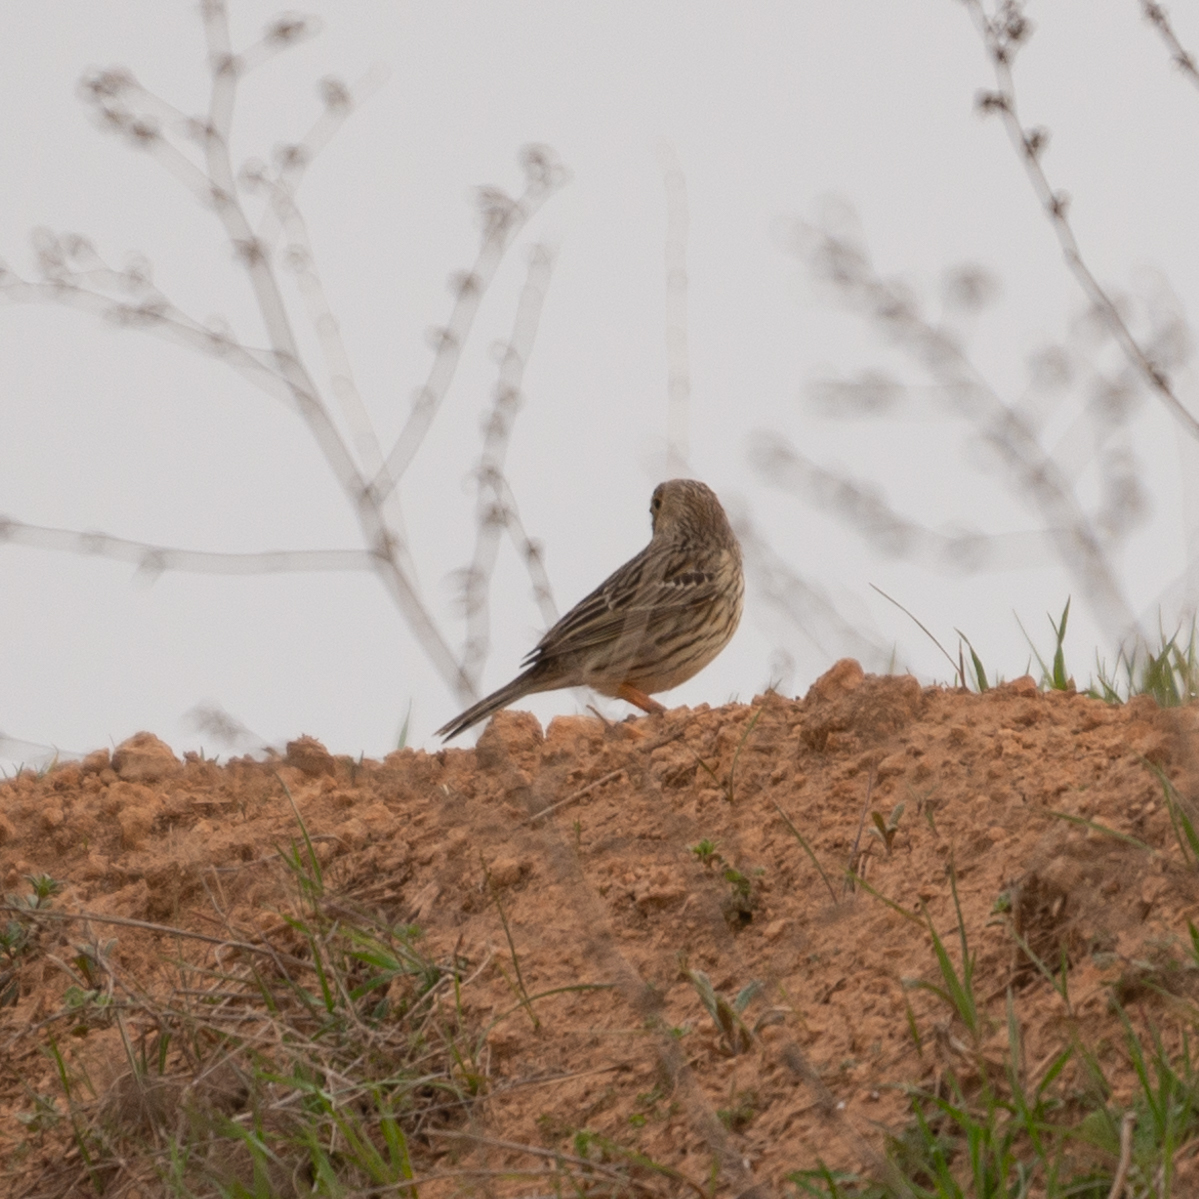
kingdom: Animalia
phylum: Chordata
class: Aves
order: Passeriformes
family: Emberizidae
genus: Emberiza
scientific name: Emberiza calandra
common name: Corn bunting
